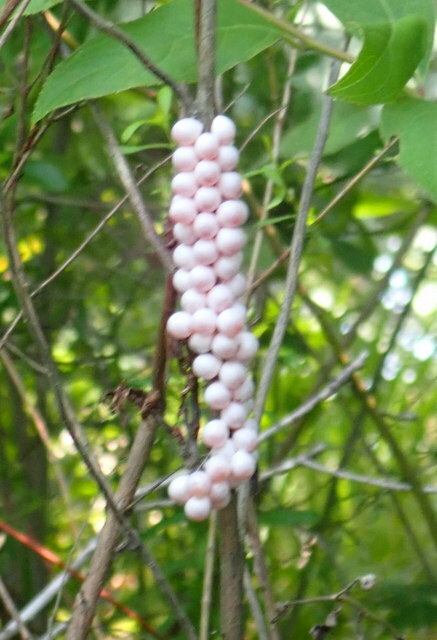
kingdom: Animalia
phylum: Mollusca
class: Gastropoda
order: Architaenioglossa
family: Ampullariidae
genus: Pomacea
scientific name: Pomacea paludosa
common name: Florida applesnail
